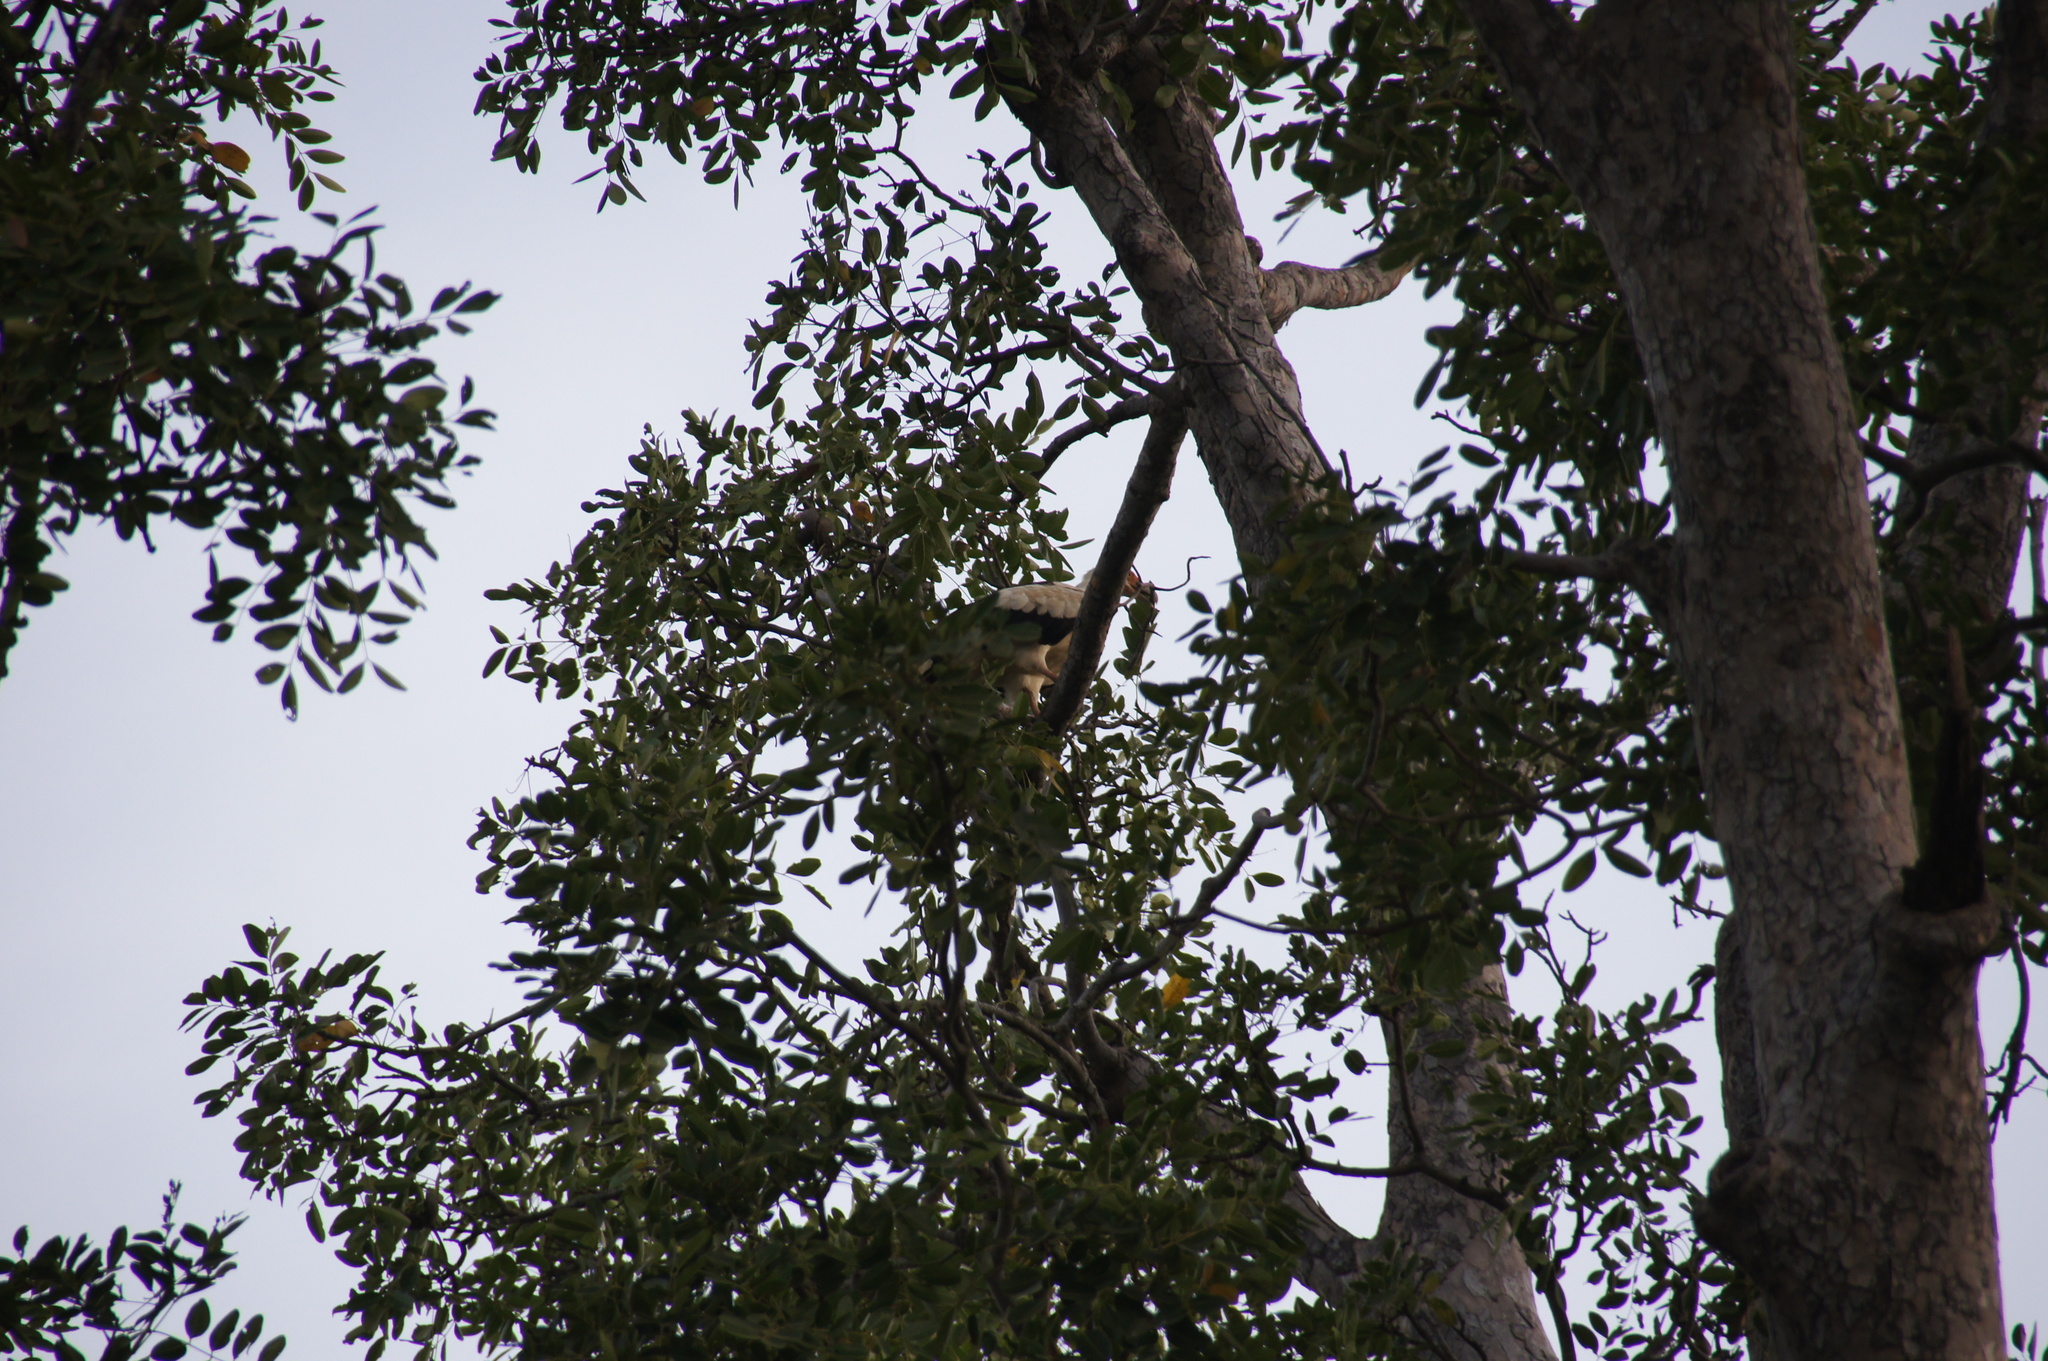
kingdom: Animalia
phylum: Chordata
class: Aves
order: Accipitriformes
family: Accipitridae
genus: Gypohierax
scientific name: Gypohierax angolensis
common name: Palm-nut vulture
